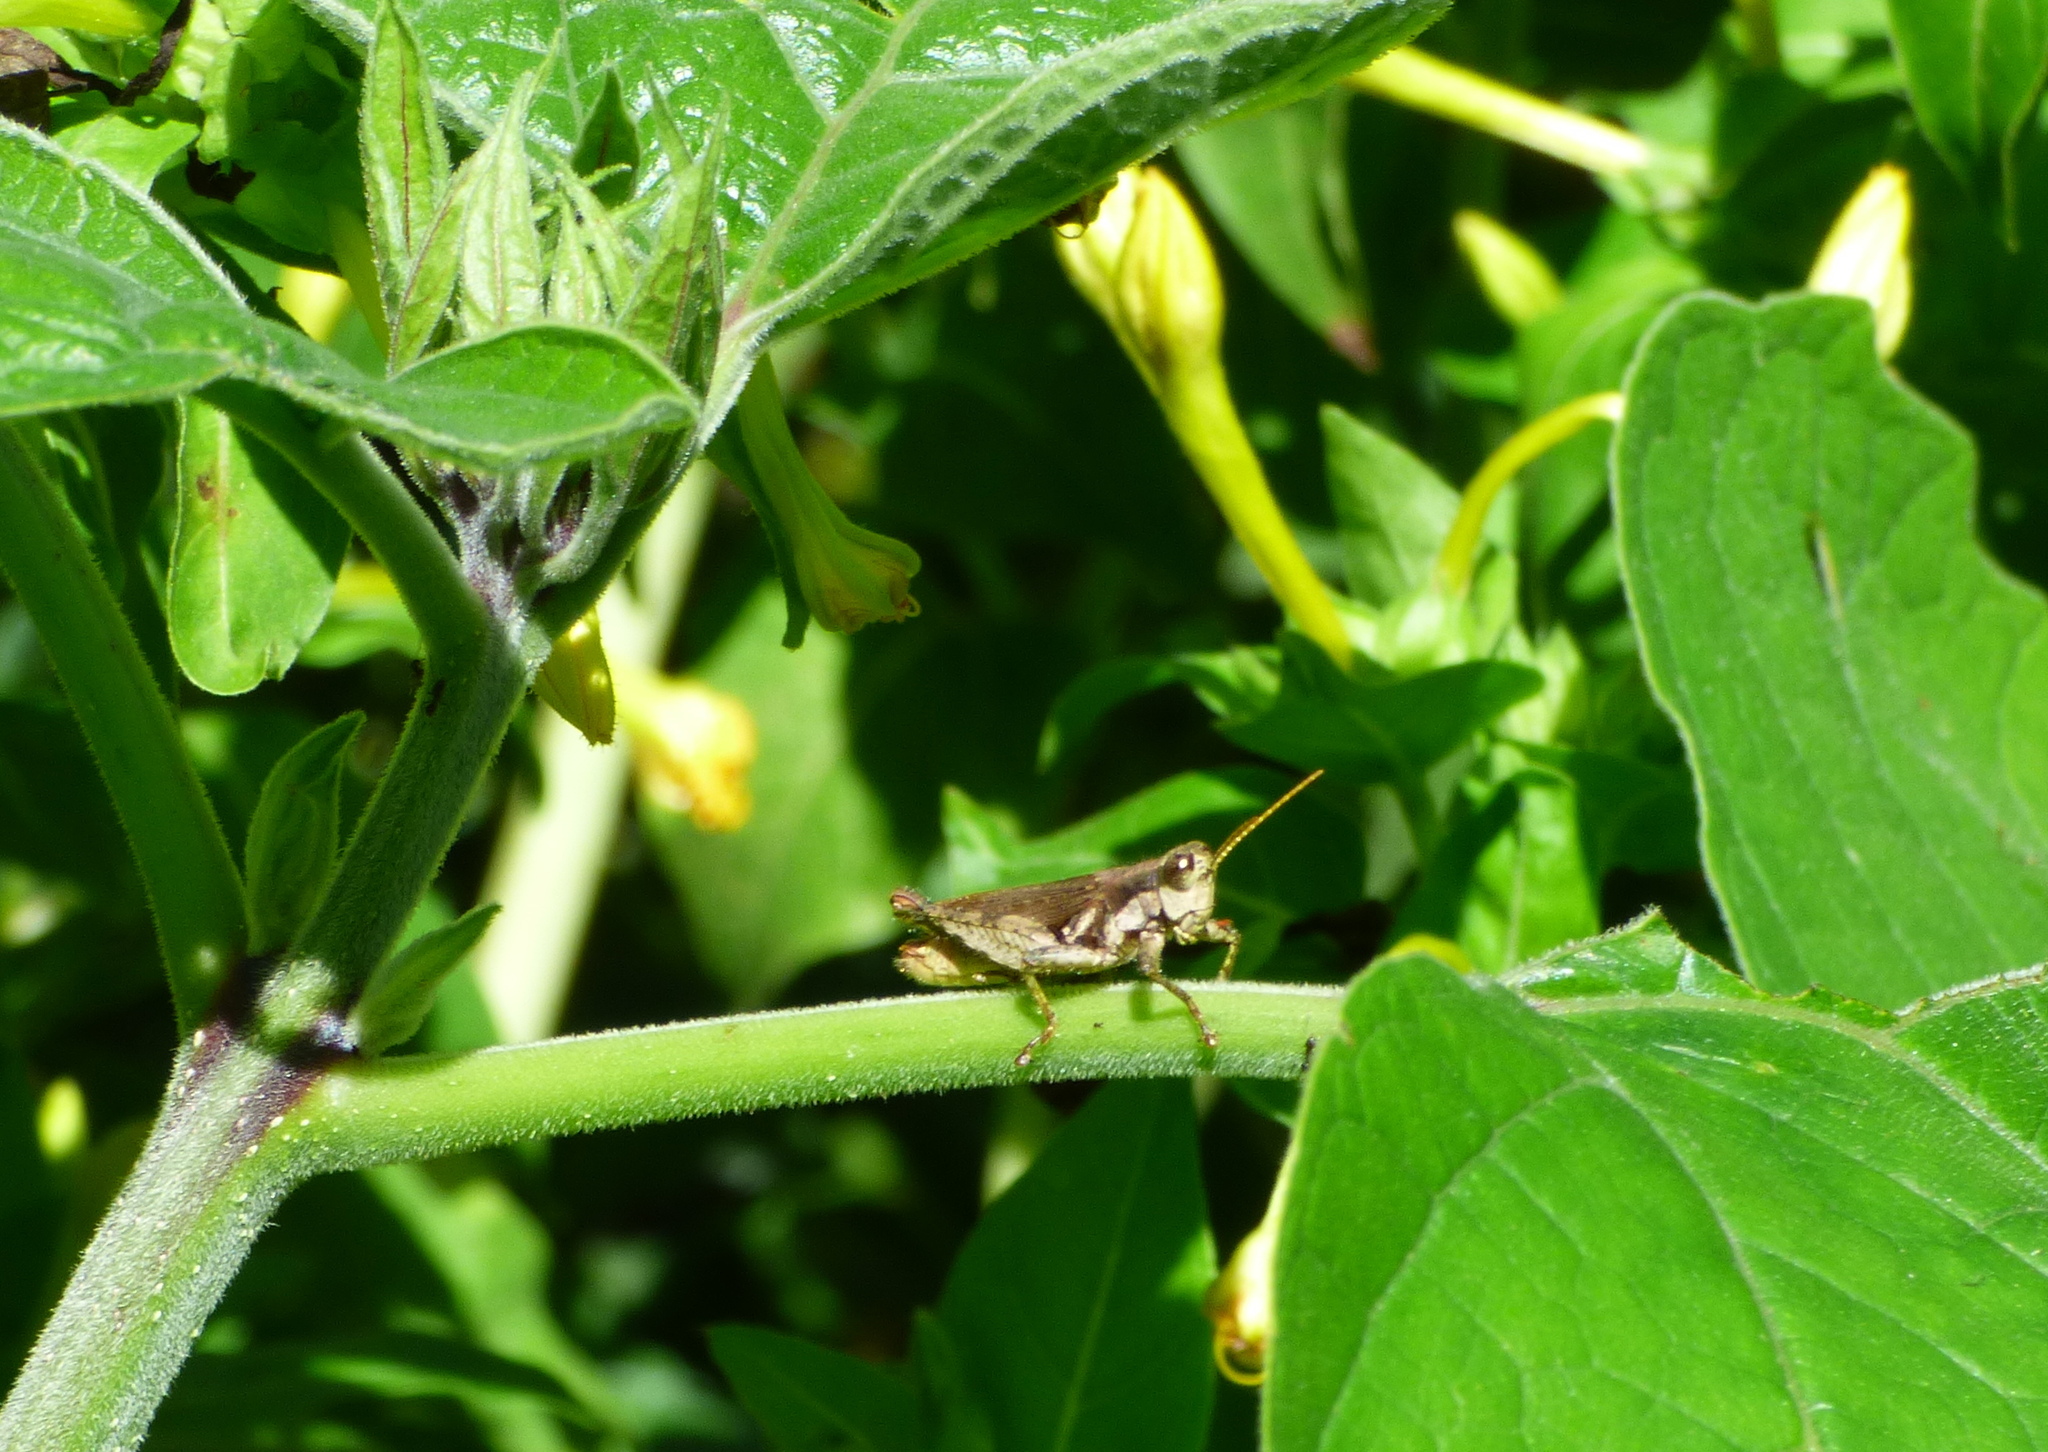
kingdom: Animalia
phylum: Arthropoda
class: Insecta
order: Orthoptera
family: Acrididae
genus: Ronderosia
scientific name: Ronderosia bergii
